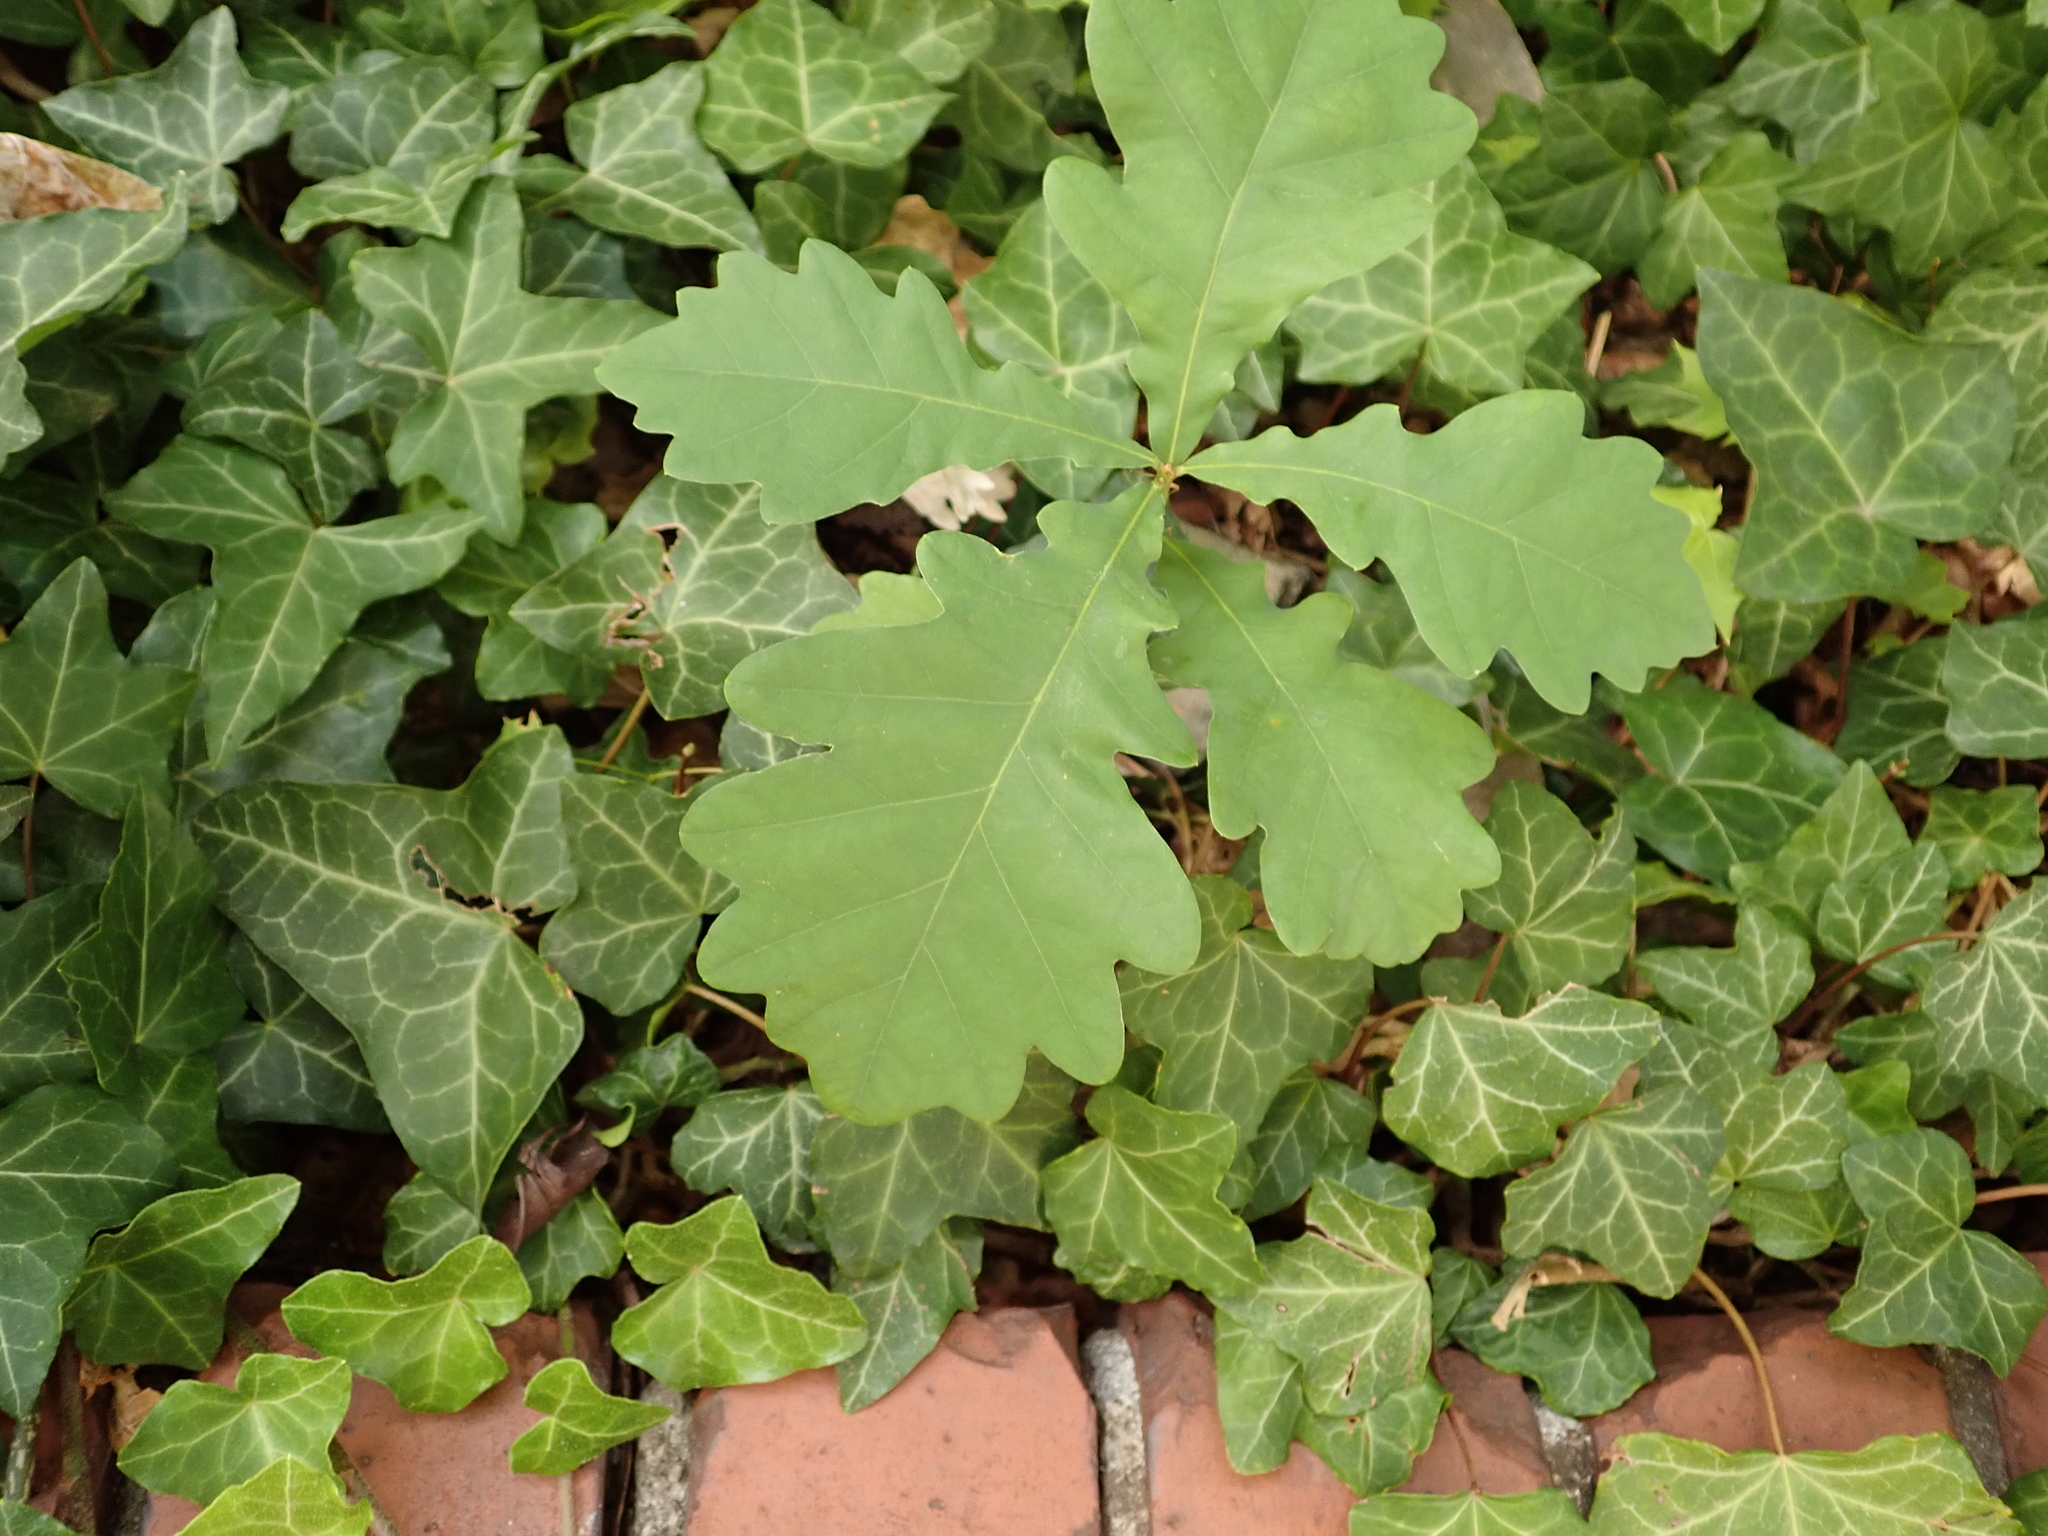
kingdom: Plantae
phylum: Tracheophyta
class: Magnoliopsida
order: Fagales
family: Fagaceae
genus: Quercus
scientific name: Quercus robur
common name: Pedunculate oak
